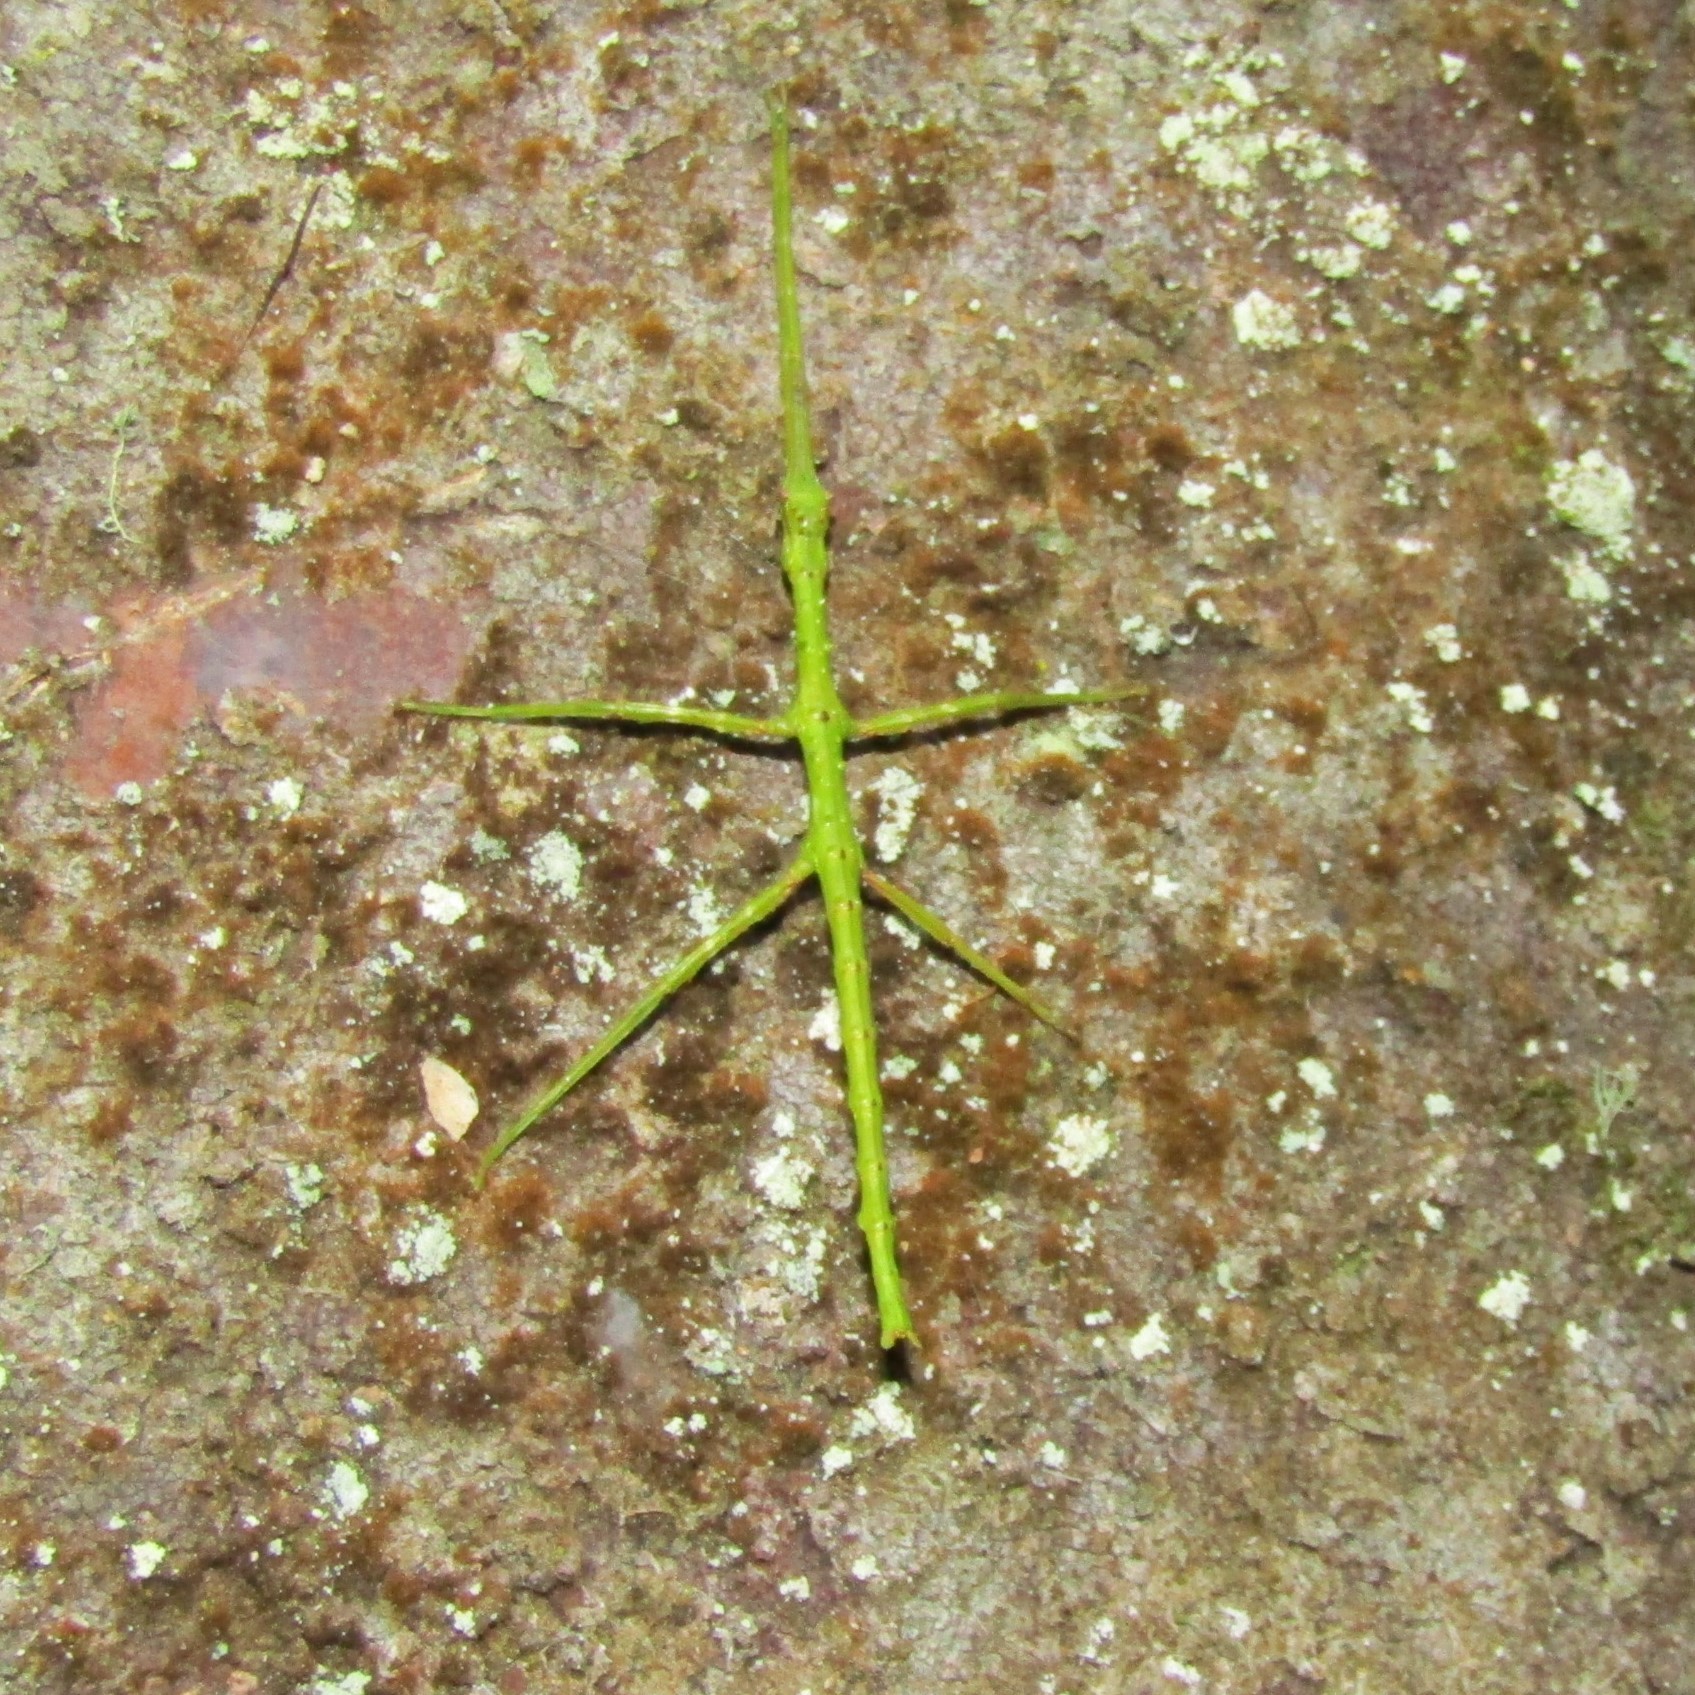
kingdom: Animalia
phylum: Arthropoda
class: Insecta
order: Phasmida
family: Phasmatidae
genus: Acanthoxyla
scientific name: Acanthoxyla prasina
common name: Black-spined stick insect
